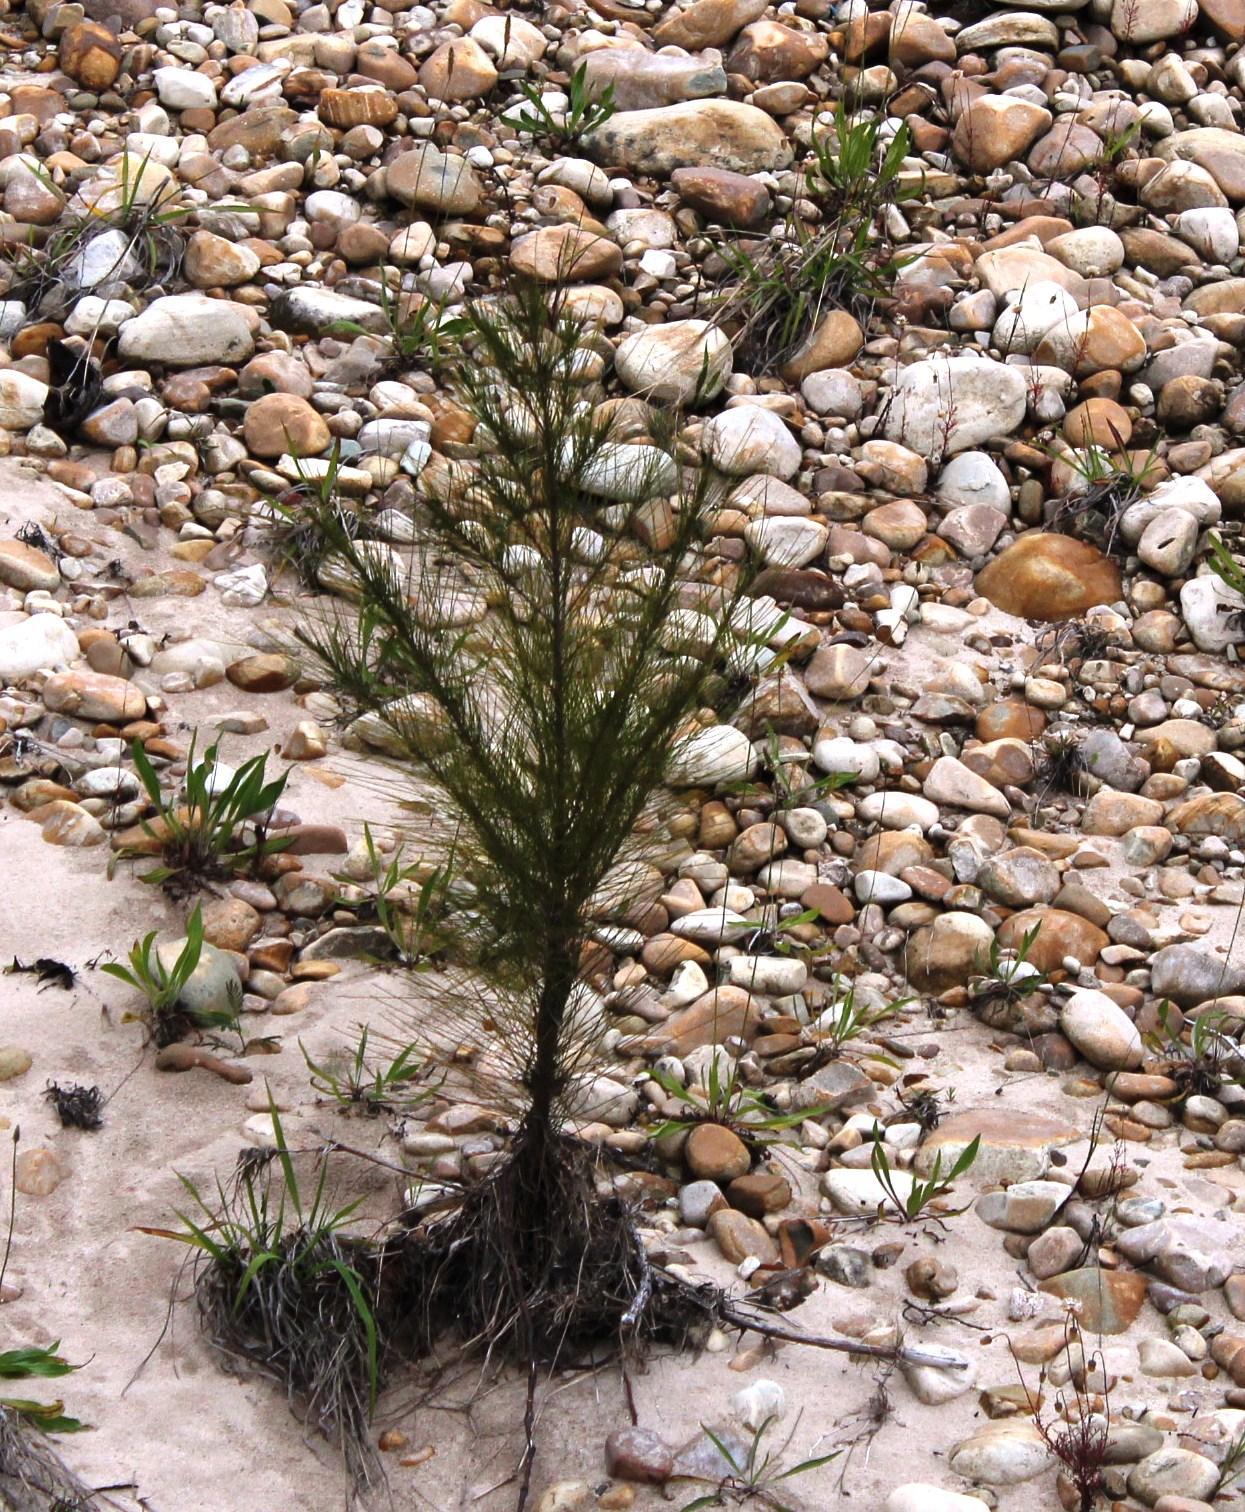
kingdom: Plantae
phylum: Tracheophyta
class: Magnoliopsida
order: Fagales
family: Casuarinaceae
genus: Casuarina
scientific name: Casuarina cunninghamiana
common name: River sheoak
